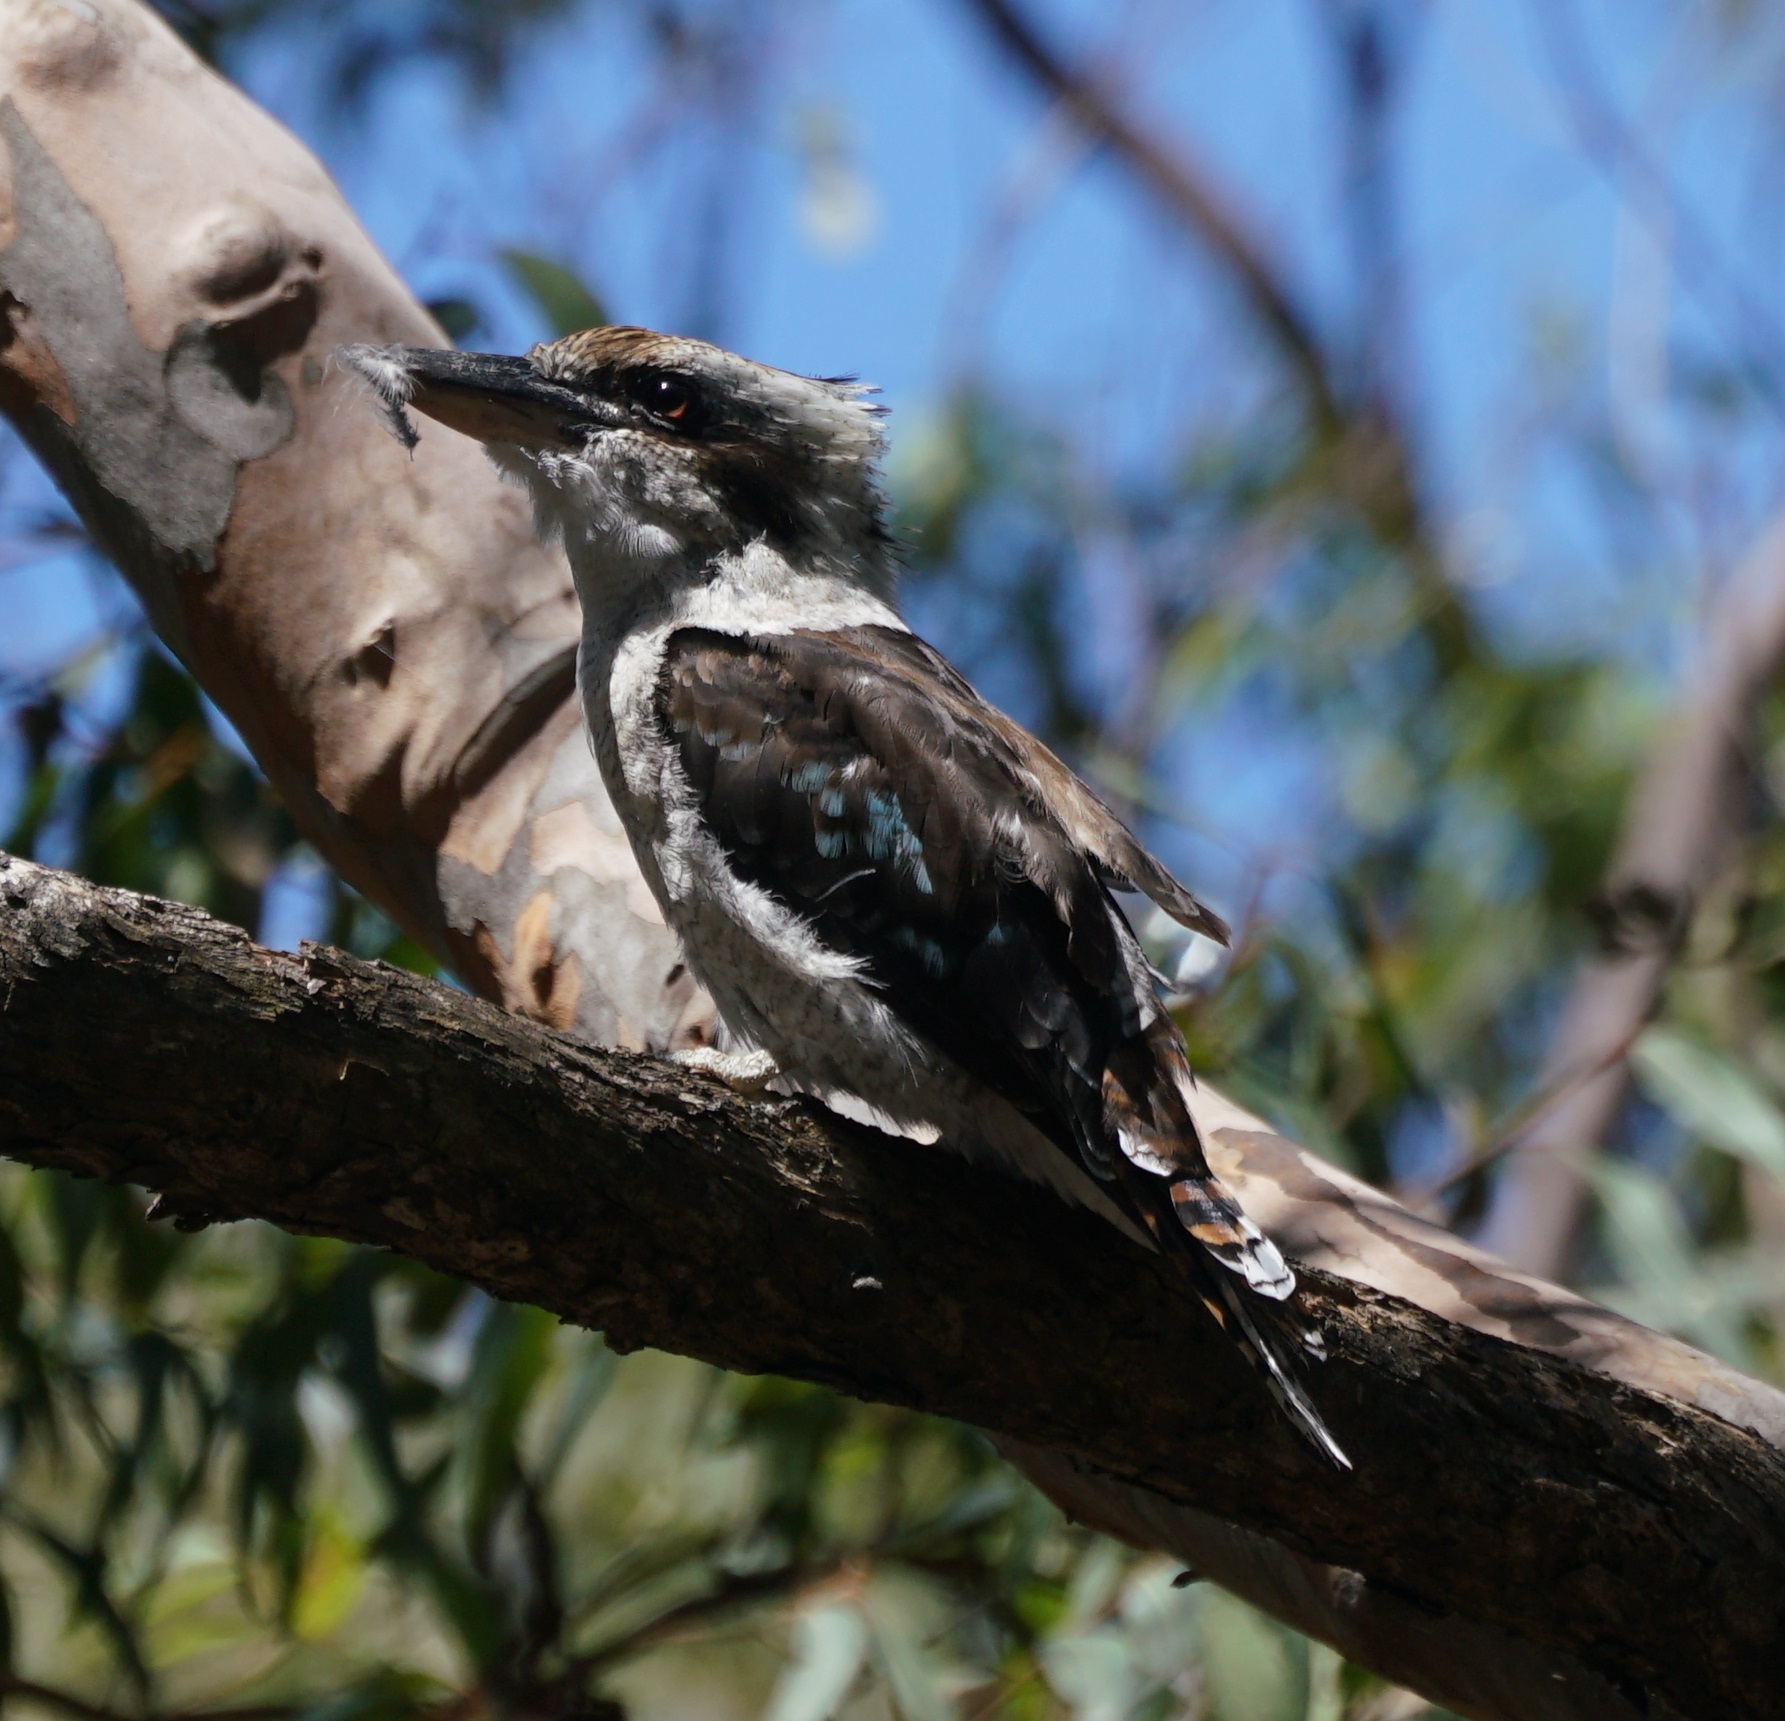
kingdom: Animalia
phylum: Chordata
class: Aves
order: Coraciiformes
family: Alcedinidae
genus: Dacelo
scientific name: Dacelo novaeguineae
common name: Laughing kookaburra
